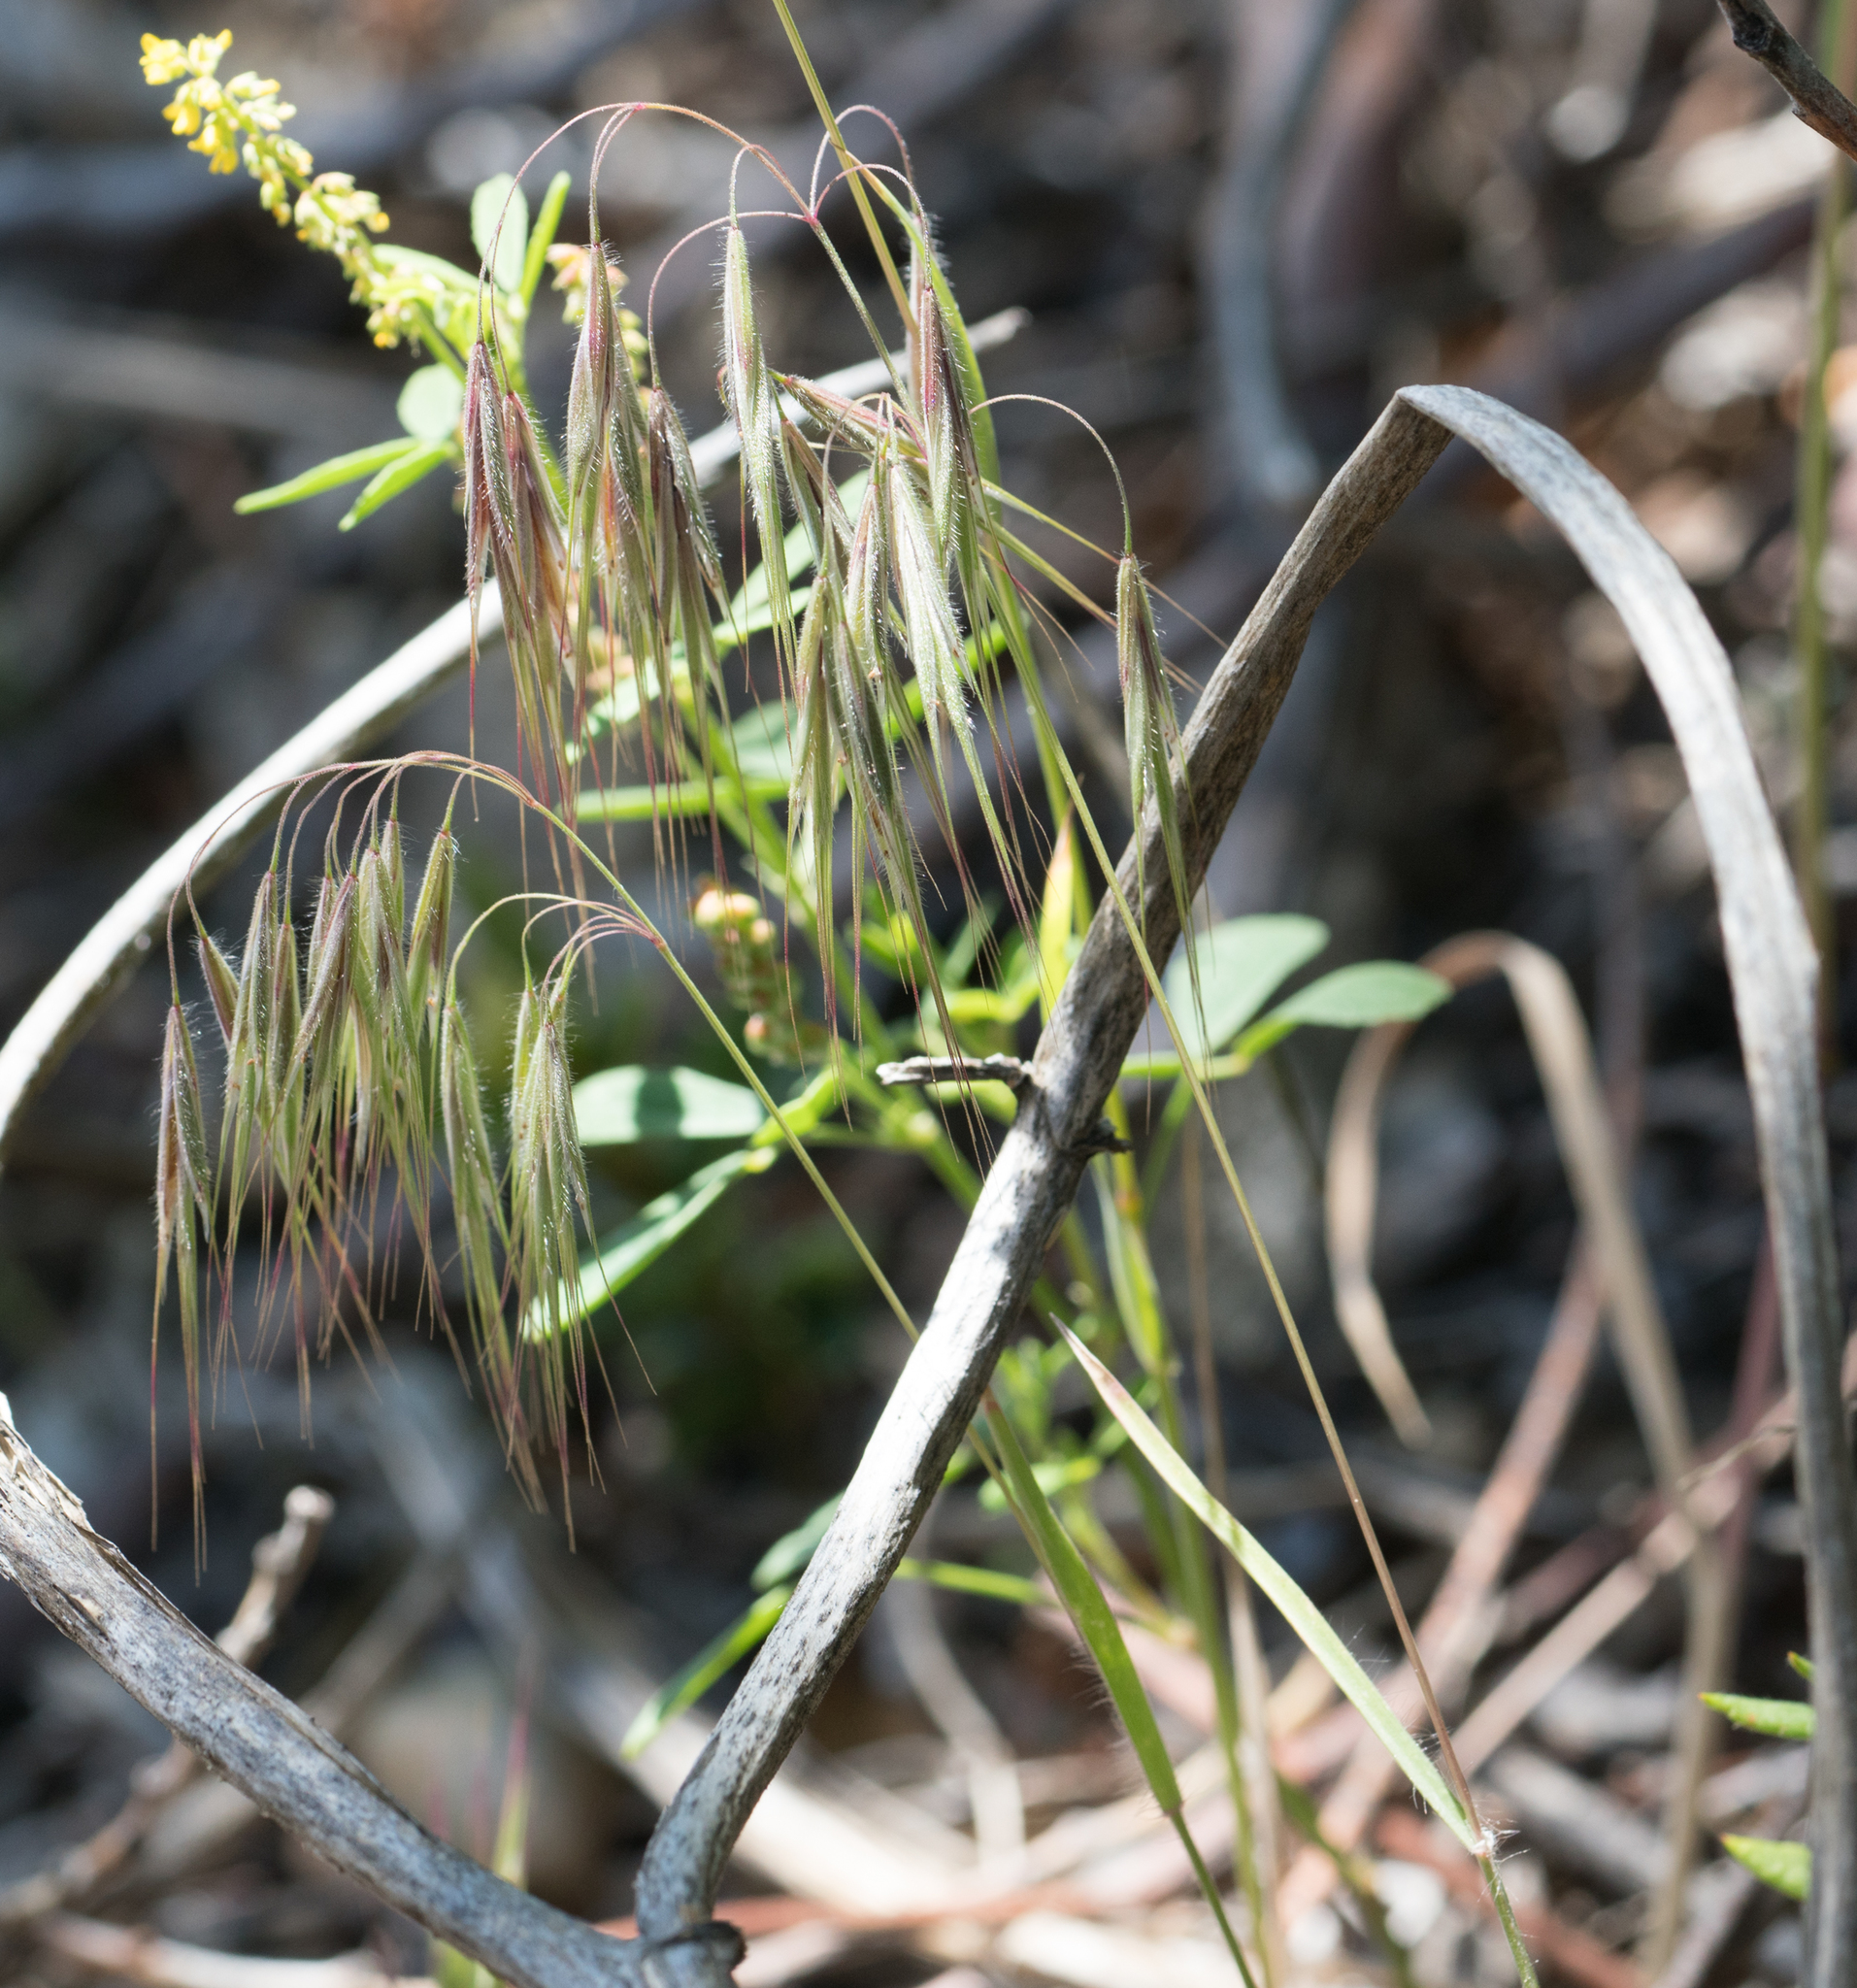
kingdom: Plantae
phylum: Tracheophyta
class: Liliopsida
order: Poales
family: Poaceae
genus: Bromus
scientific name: Bromus tectorum
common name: Cheatgrass
